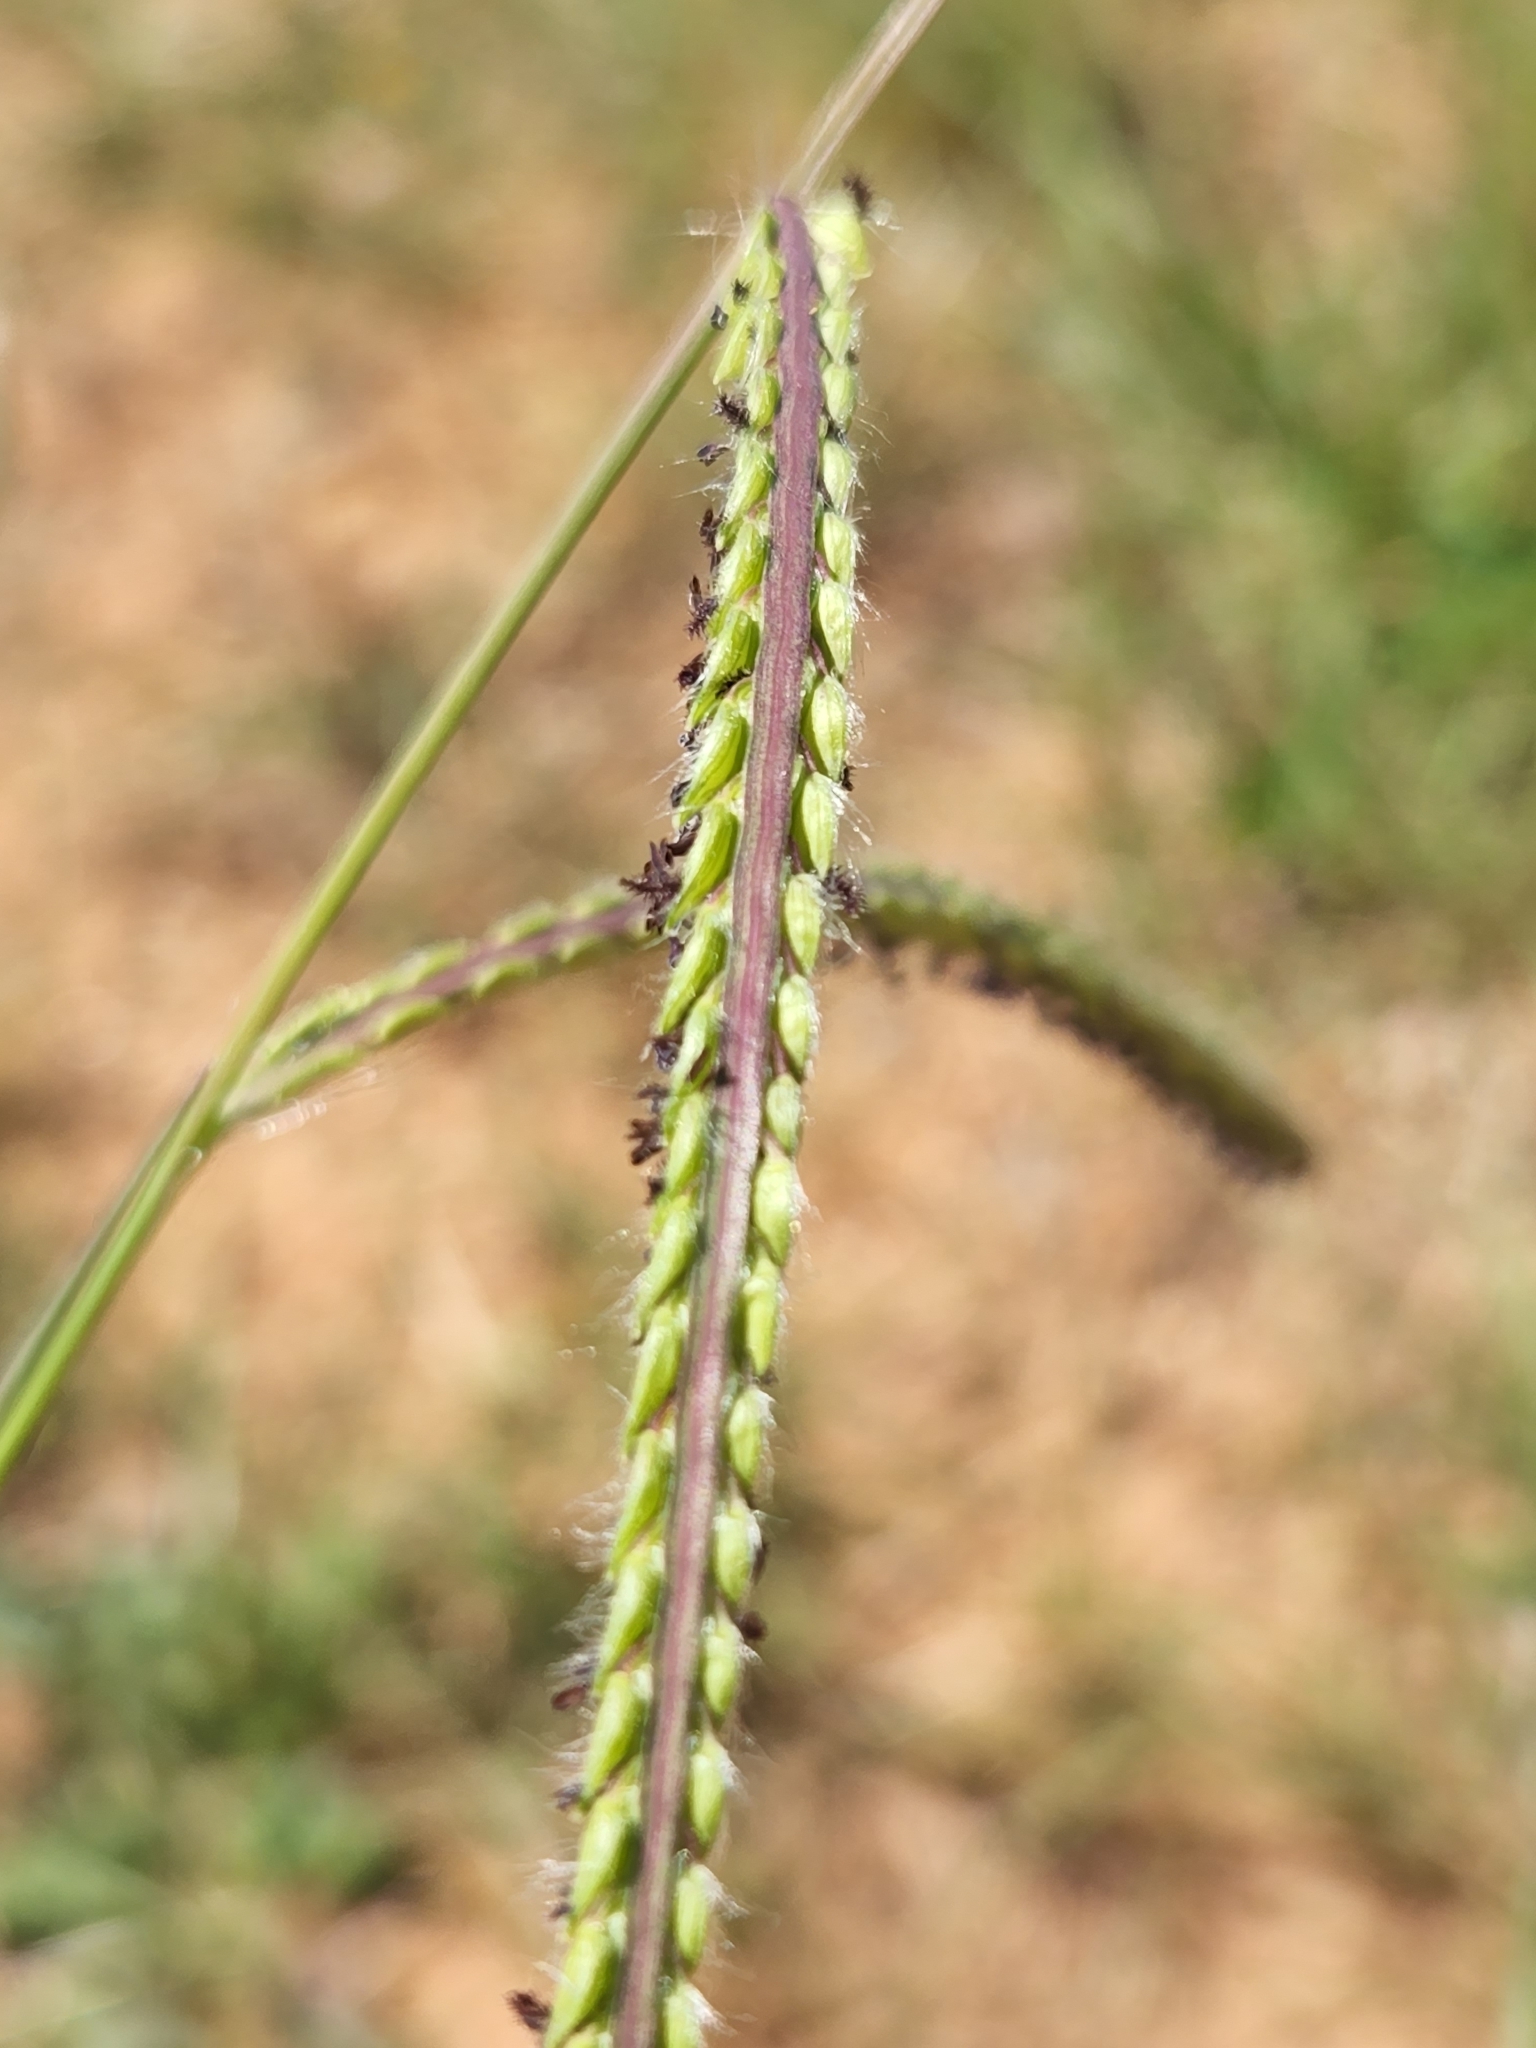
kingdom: Plantae
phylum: Tracheophyta
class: Liliopsida
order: Poales
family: Poaceae
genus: Paspalum
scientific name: Paspalum dilatatum
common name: Dallisgrass
